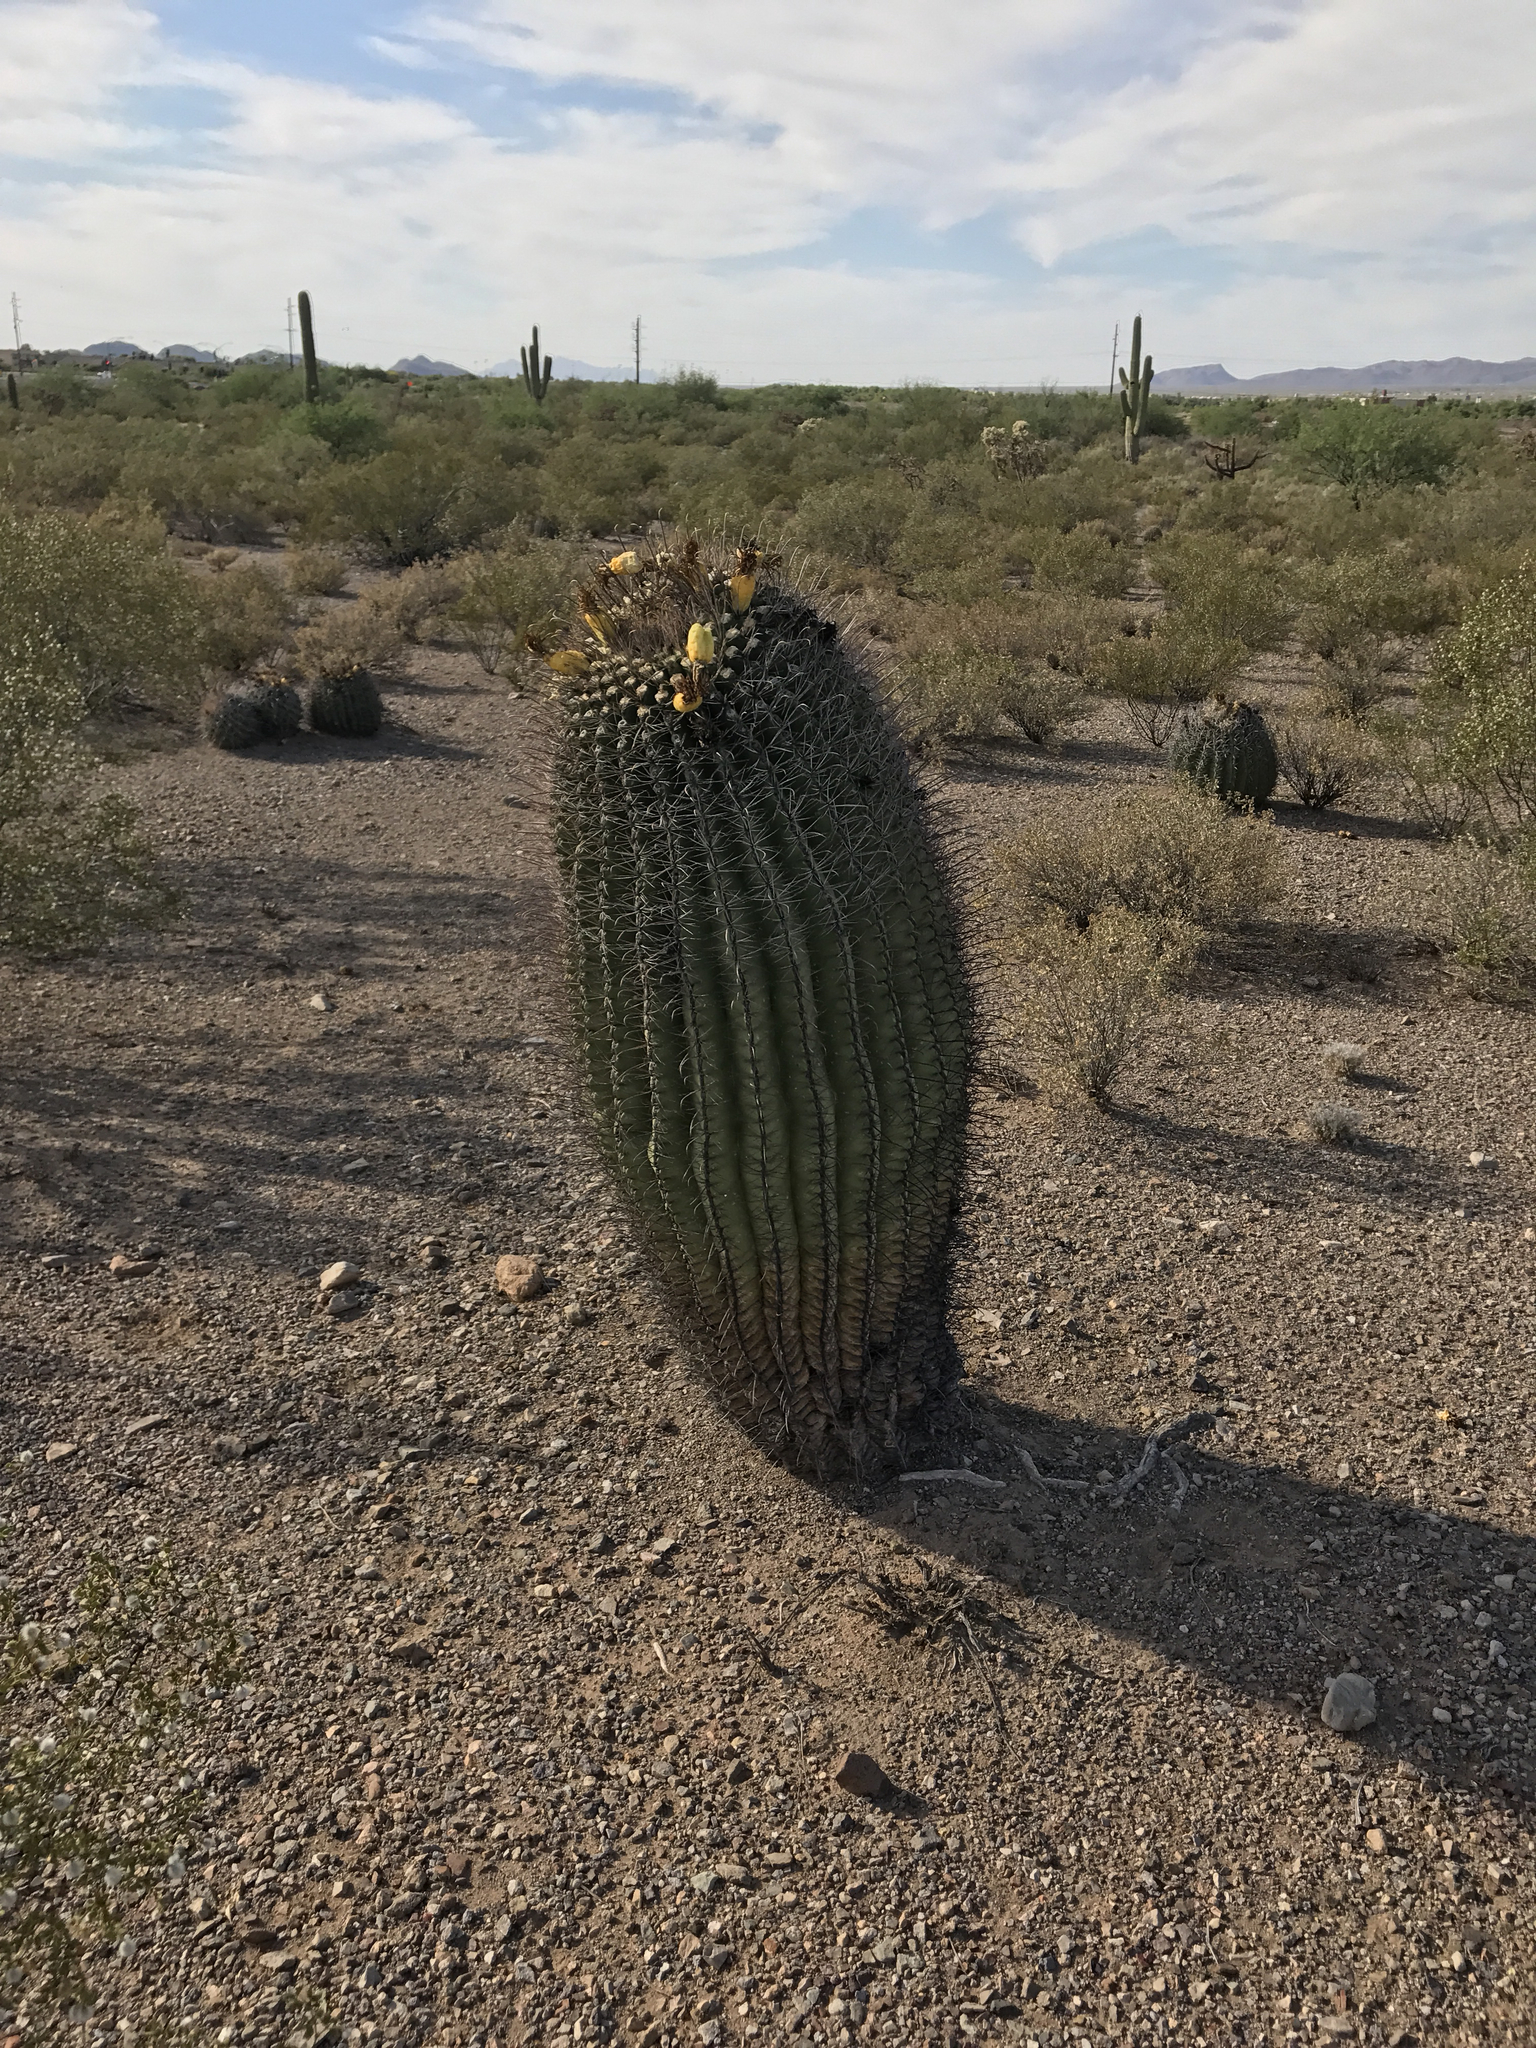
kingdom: Plantae
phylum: Tracheophyta
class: Magnoliopsida
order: Caryophyllales
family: Cactaceae
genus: Ferocactus
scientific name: Ferocactus wislizeni
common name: Candy barrel cactus
